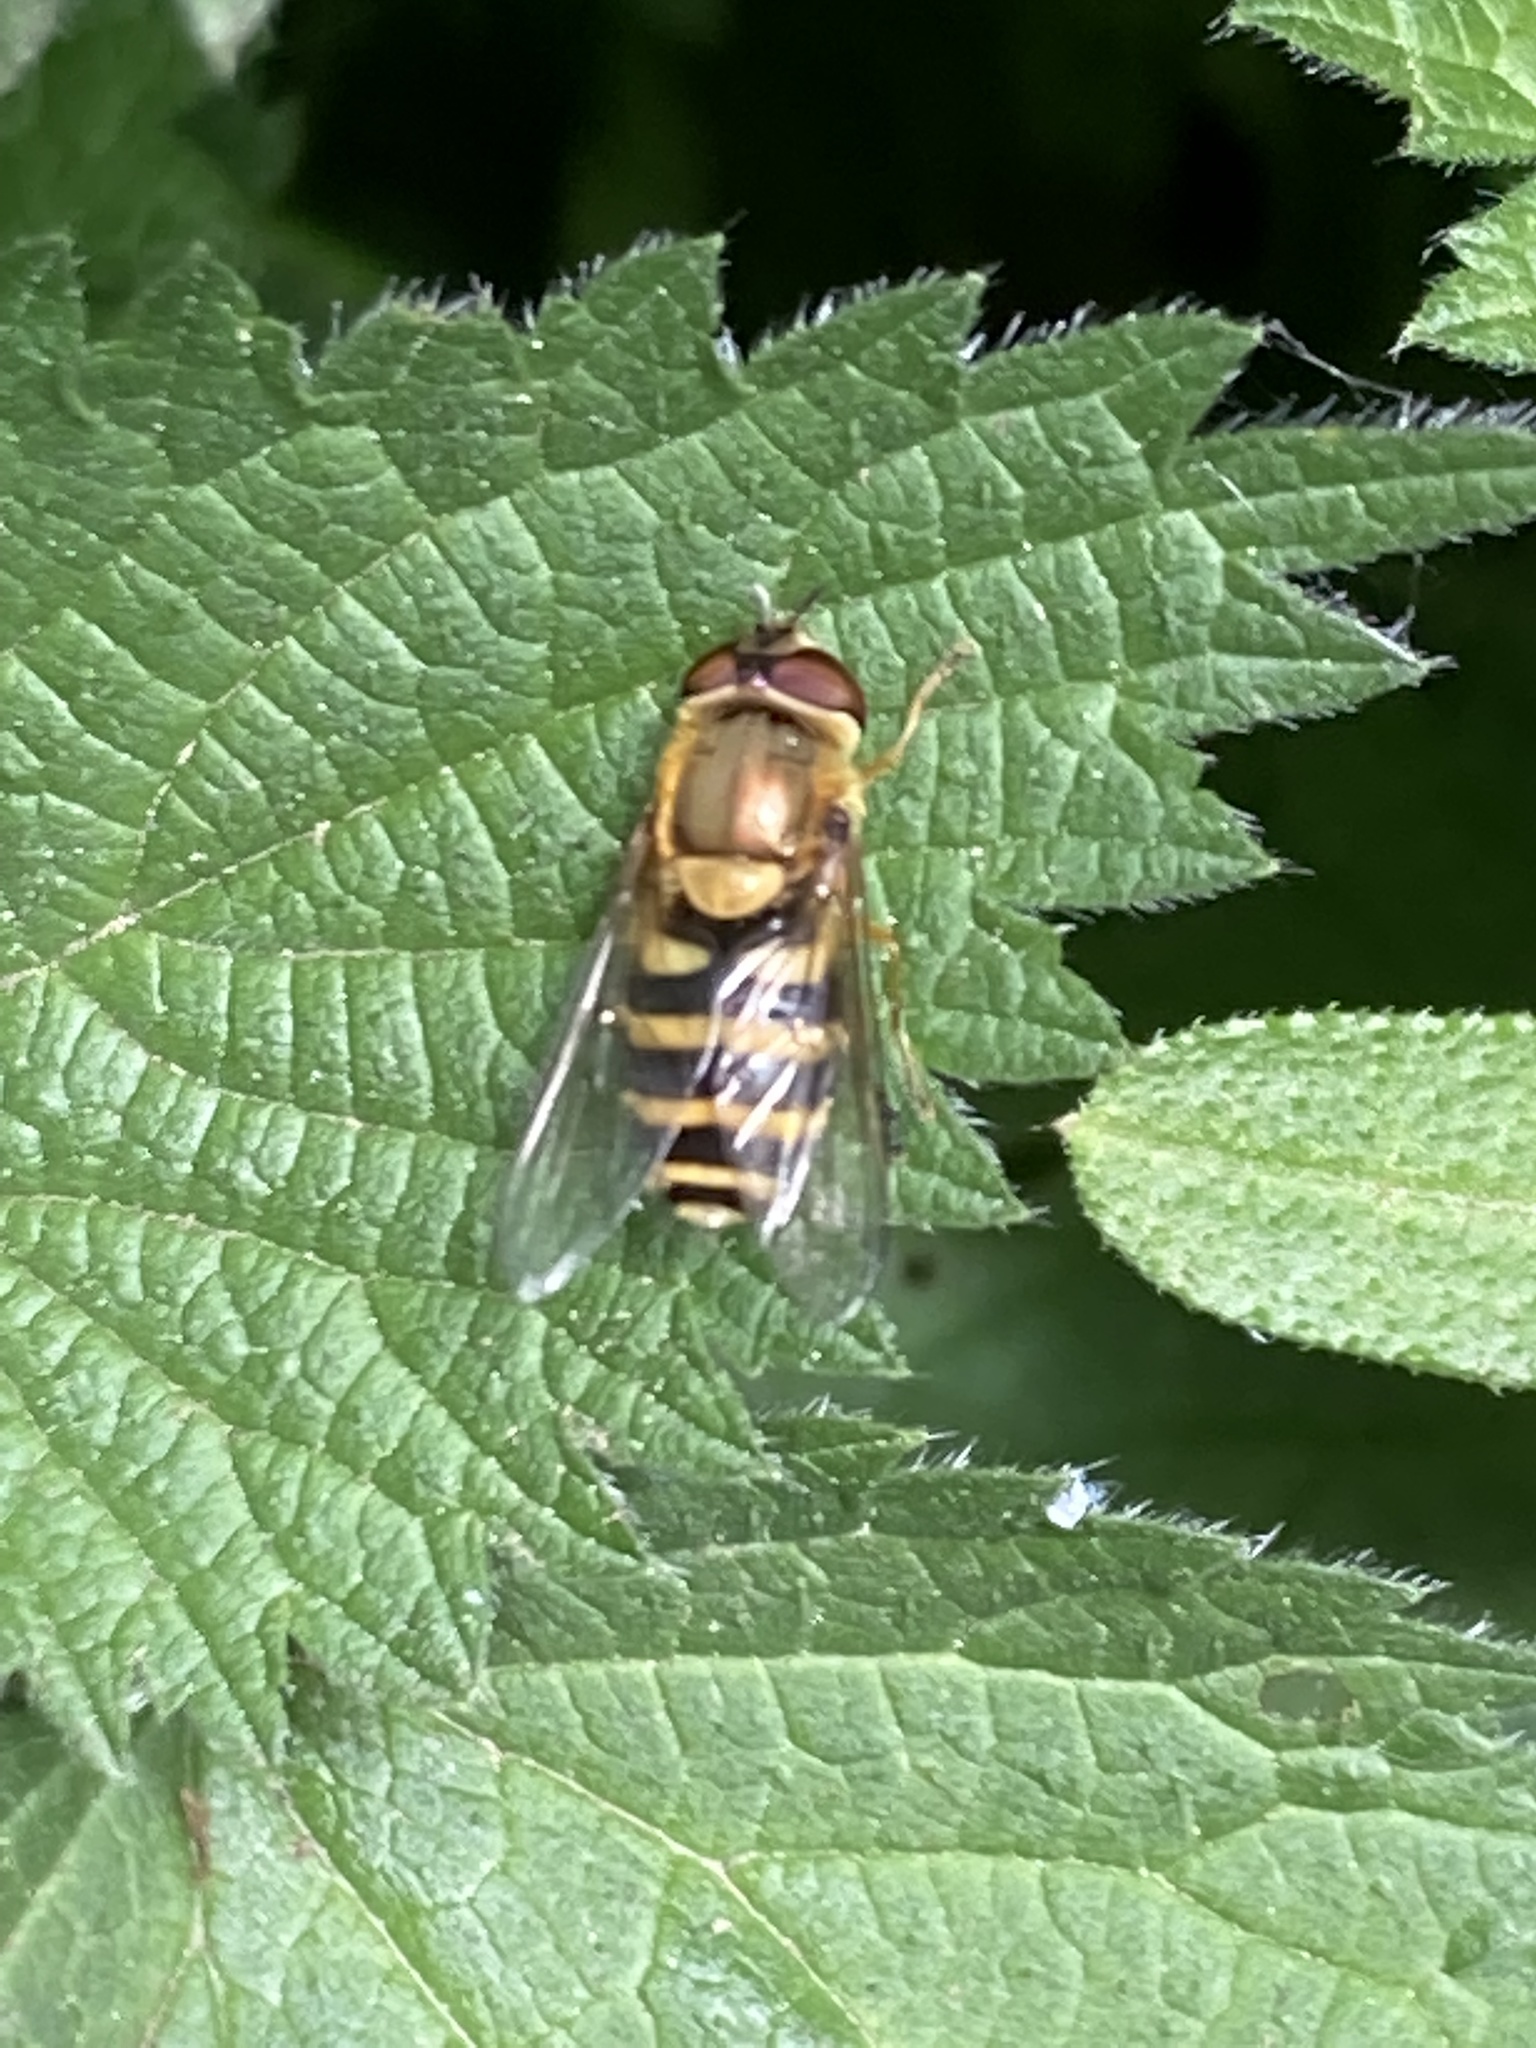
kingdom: Animalia
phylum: Arthropoda
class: Insecta
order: Diptera
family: Syrphidae
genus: Syrphus
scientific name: Syrphus
